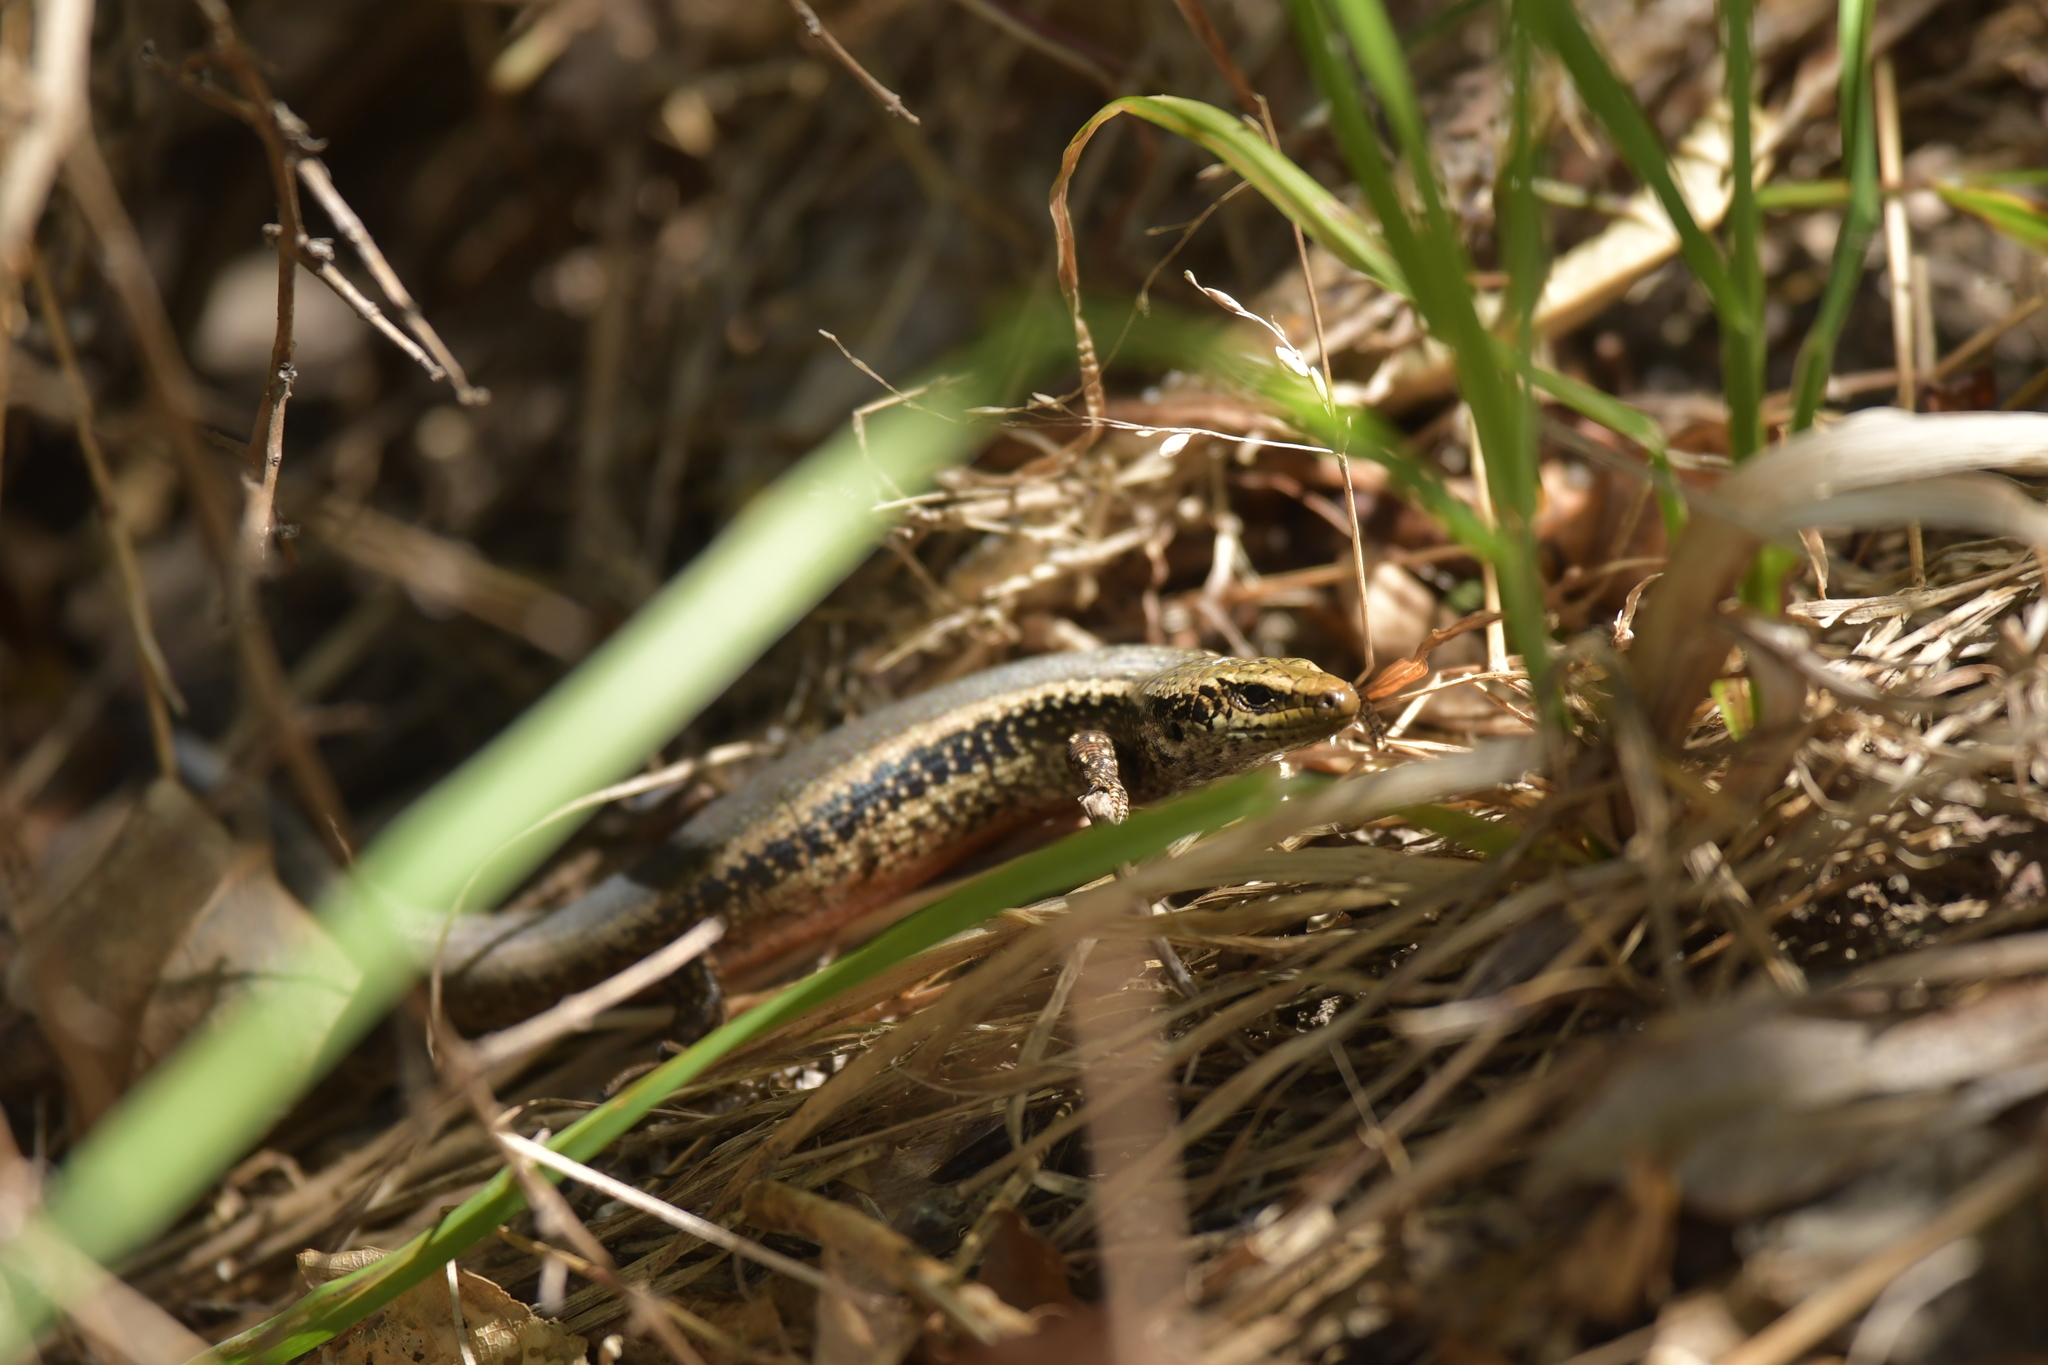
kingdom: Animalia
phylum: Chordata
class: Squamata
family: Scincidae
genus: Oligosoma
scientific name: Oligosoma kokowai
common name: Northern spotted skink
